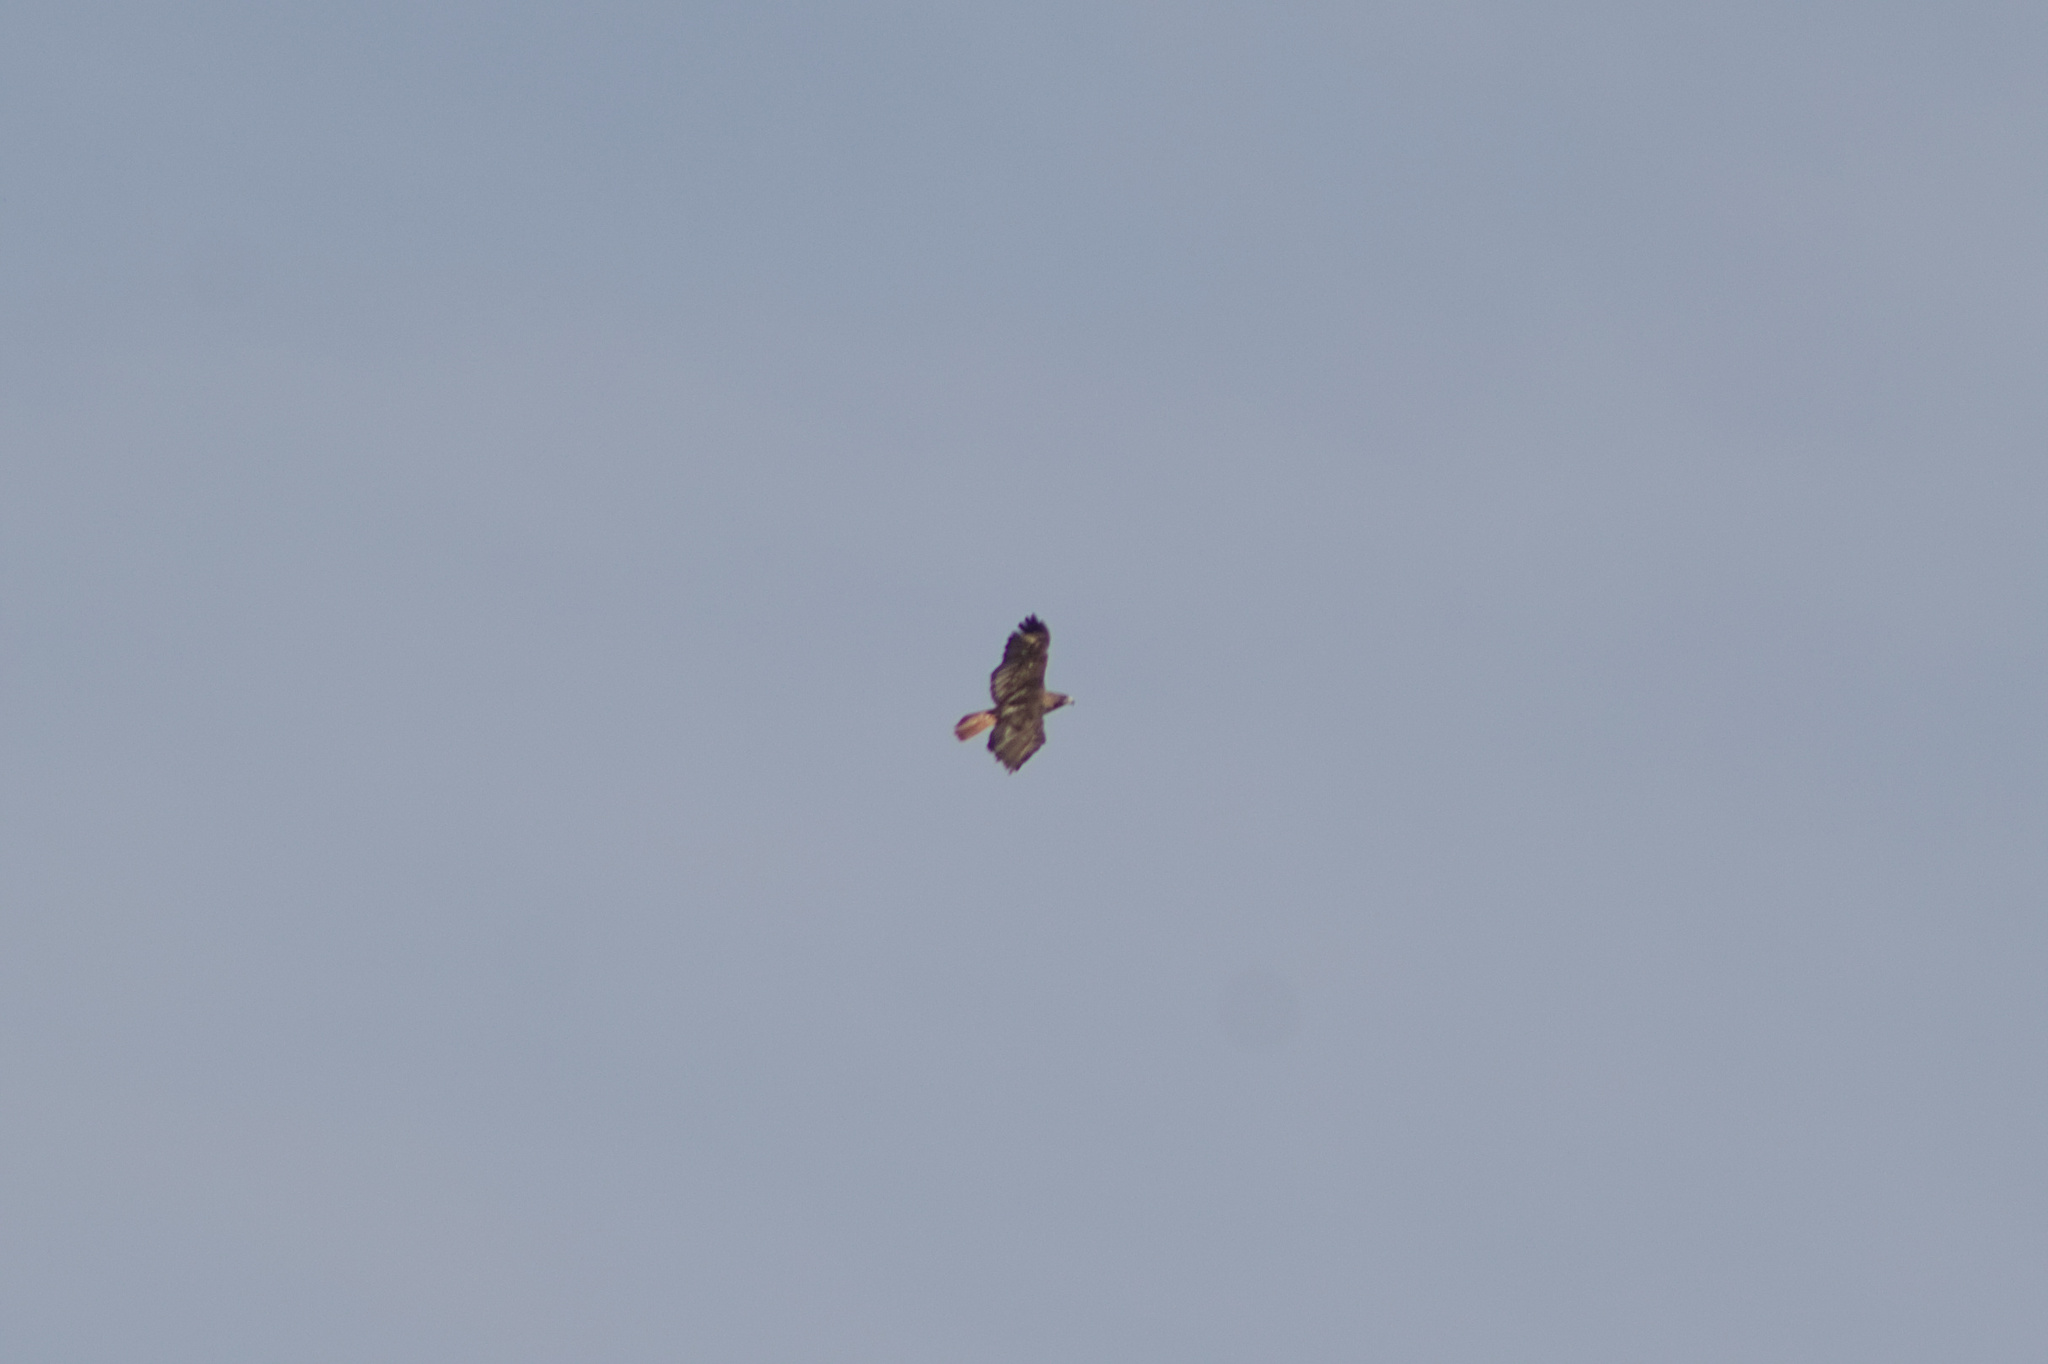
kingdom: Animalia
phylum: Chordata
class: Aves
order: Accipitriformes
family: Accipitridae
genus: Buteo
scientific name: Buteo jamaicensis
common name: Red-tailed hawk
